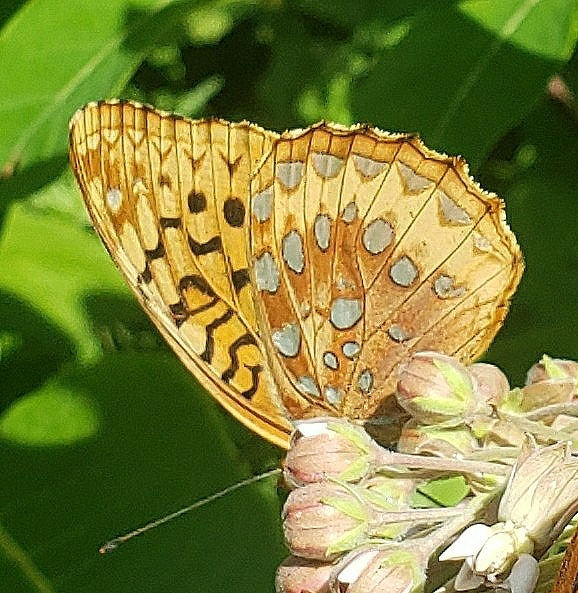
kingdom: Animalia
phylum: Arthropoda
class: Insecta
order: Lepidoptera
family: Nymphalidae
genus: Speyeria
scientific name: Speyeria cybele
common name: Great spangled fritillary
